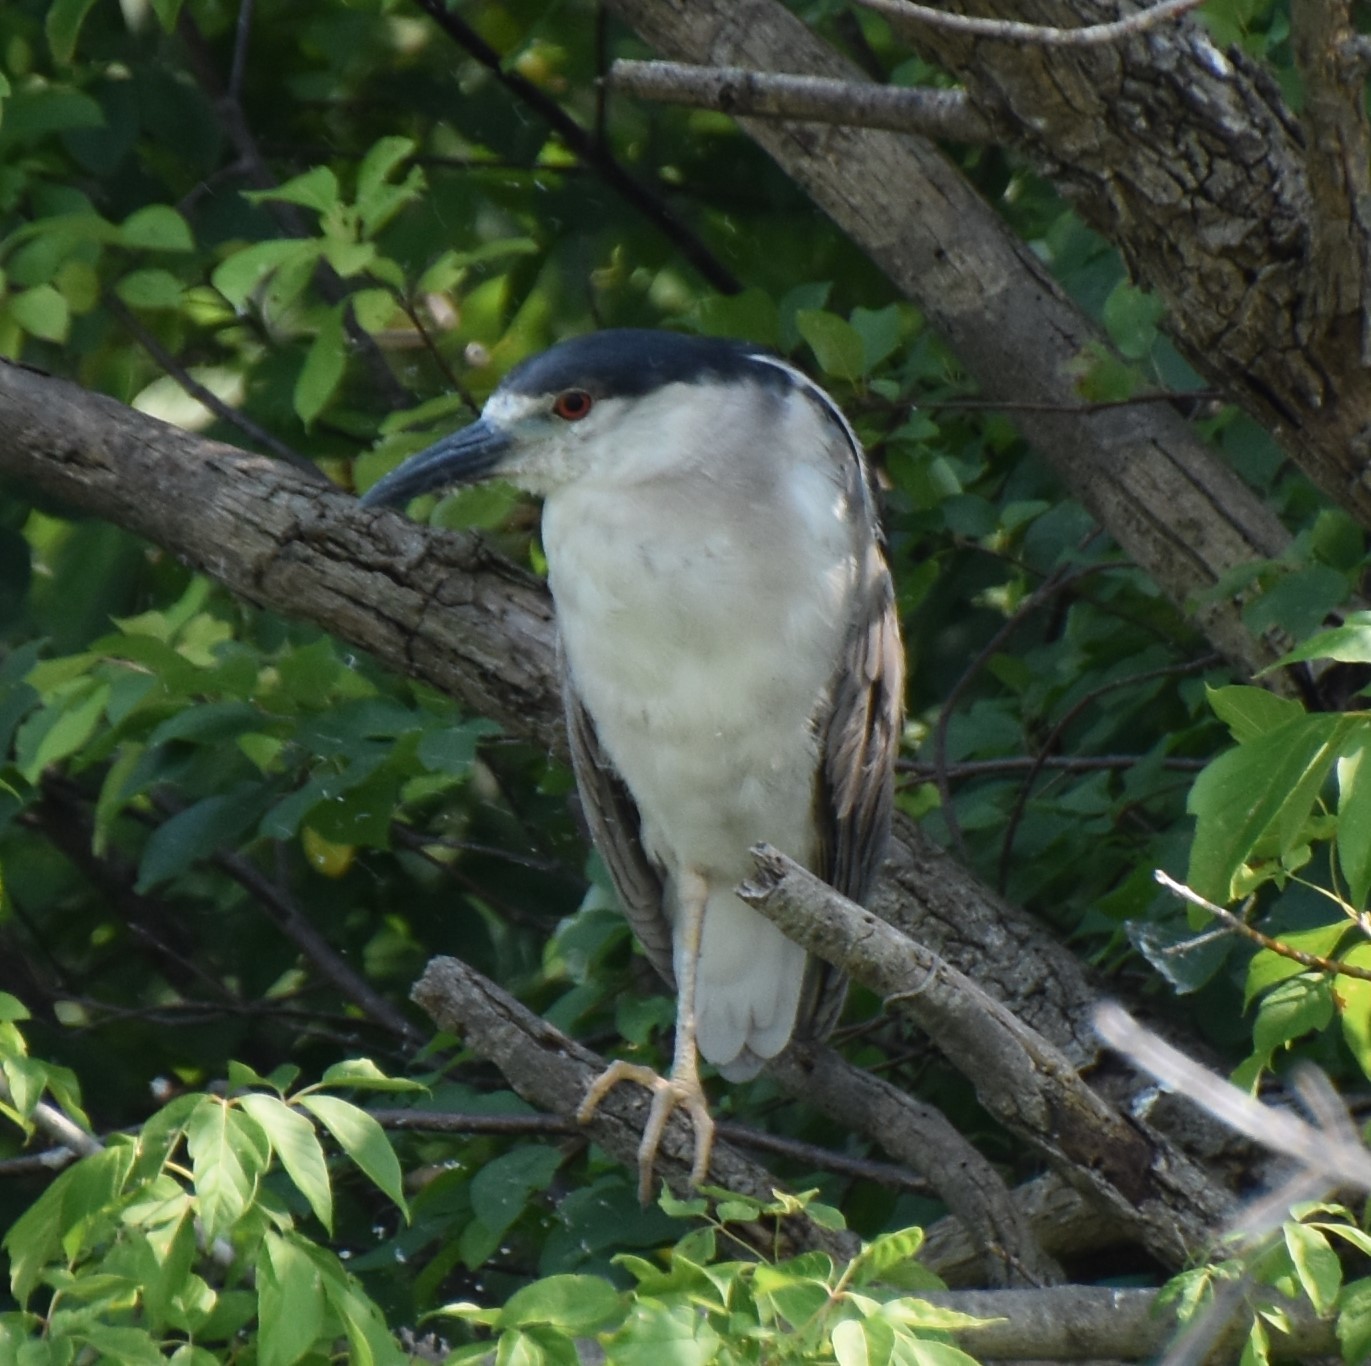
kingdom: Animalia
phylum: Chordata
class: Aves
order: Pelecaniformes
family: Ardeidae
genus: Nycticorax
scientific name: Nycticorax nycticorax
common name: Black-crowned night heron
